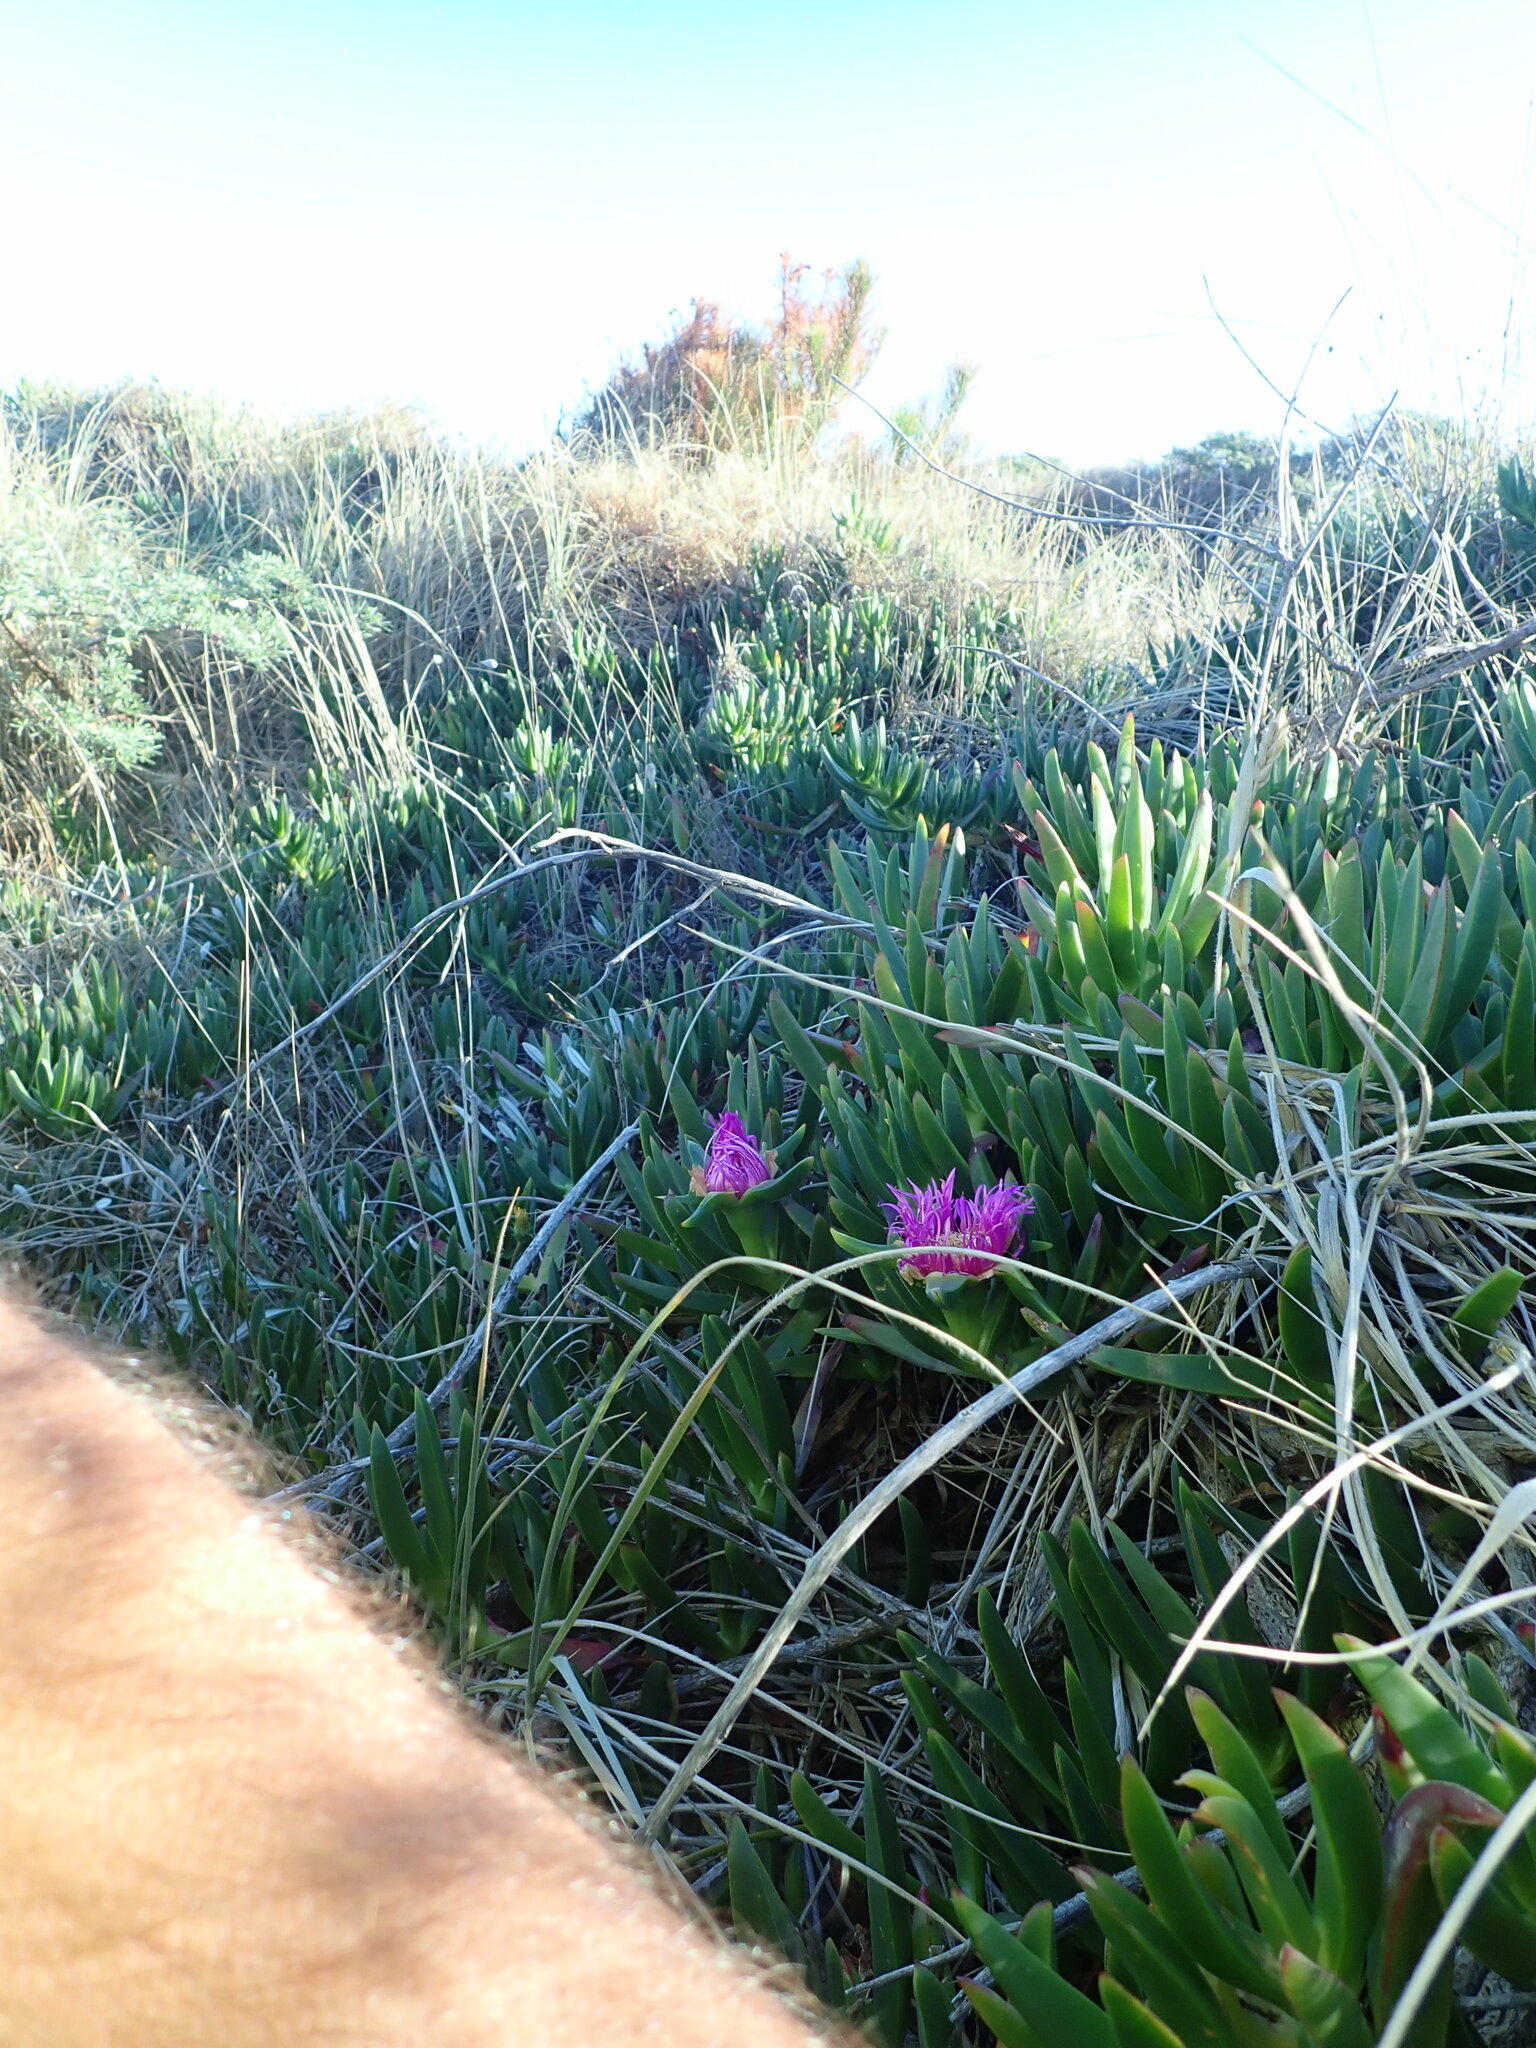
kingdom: Plantae
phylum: Tracheophyta
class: Magnoliopsida
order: Caryophyllales
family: Aizoaceae
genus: Carpobrotus
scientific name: Carpobrotus chilensis
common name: Sea fig
